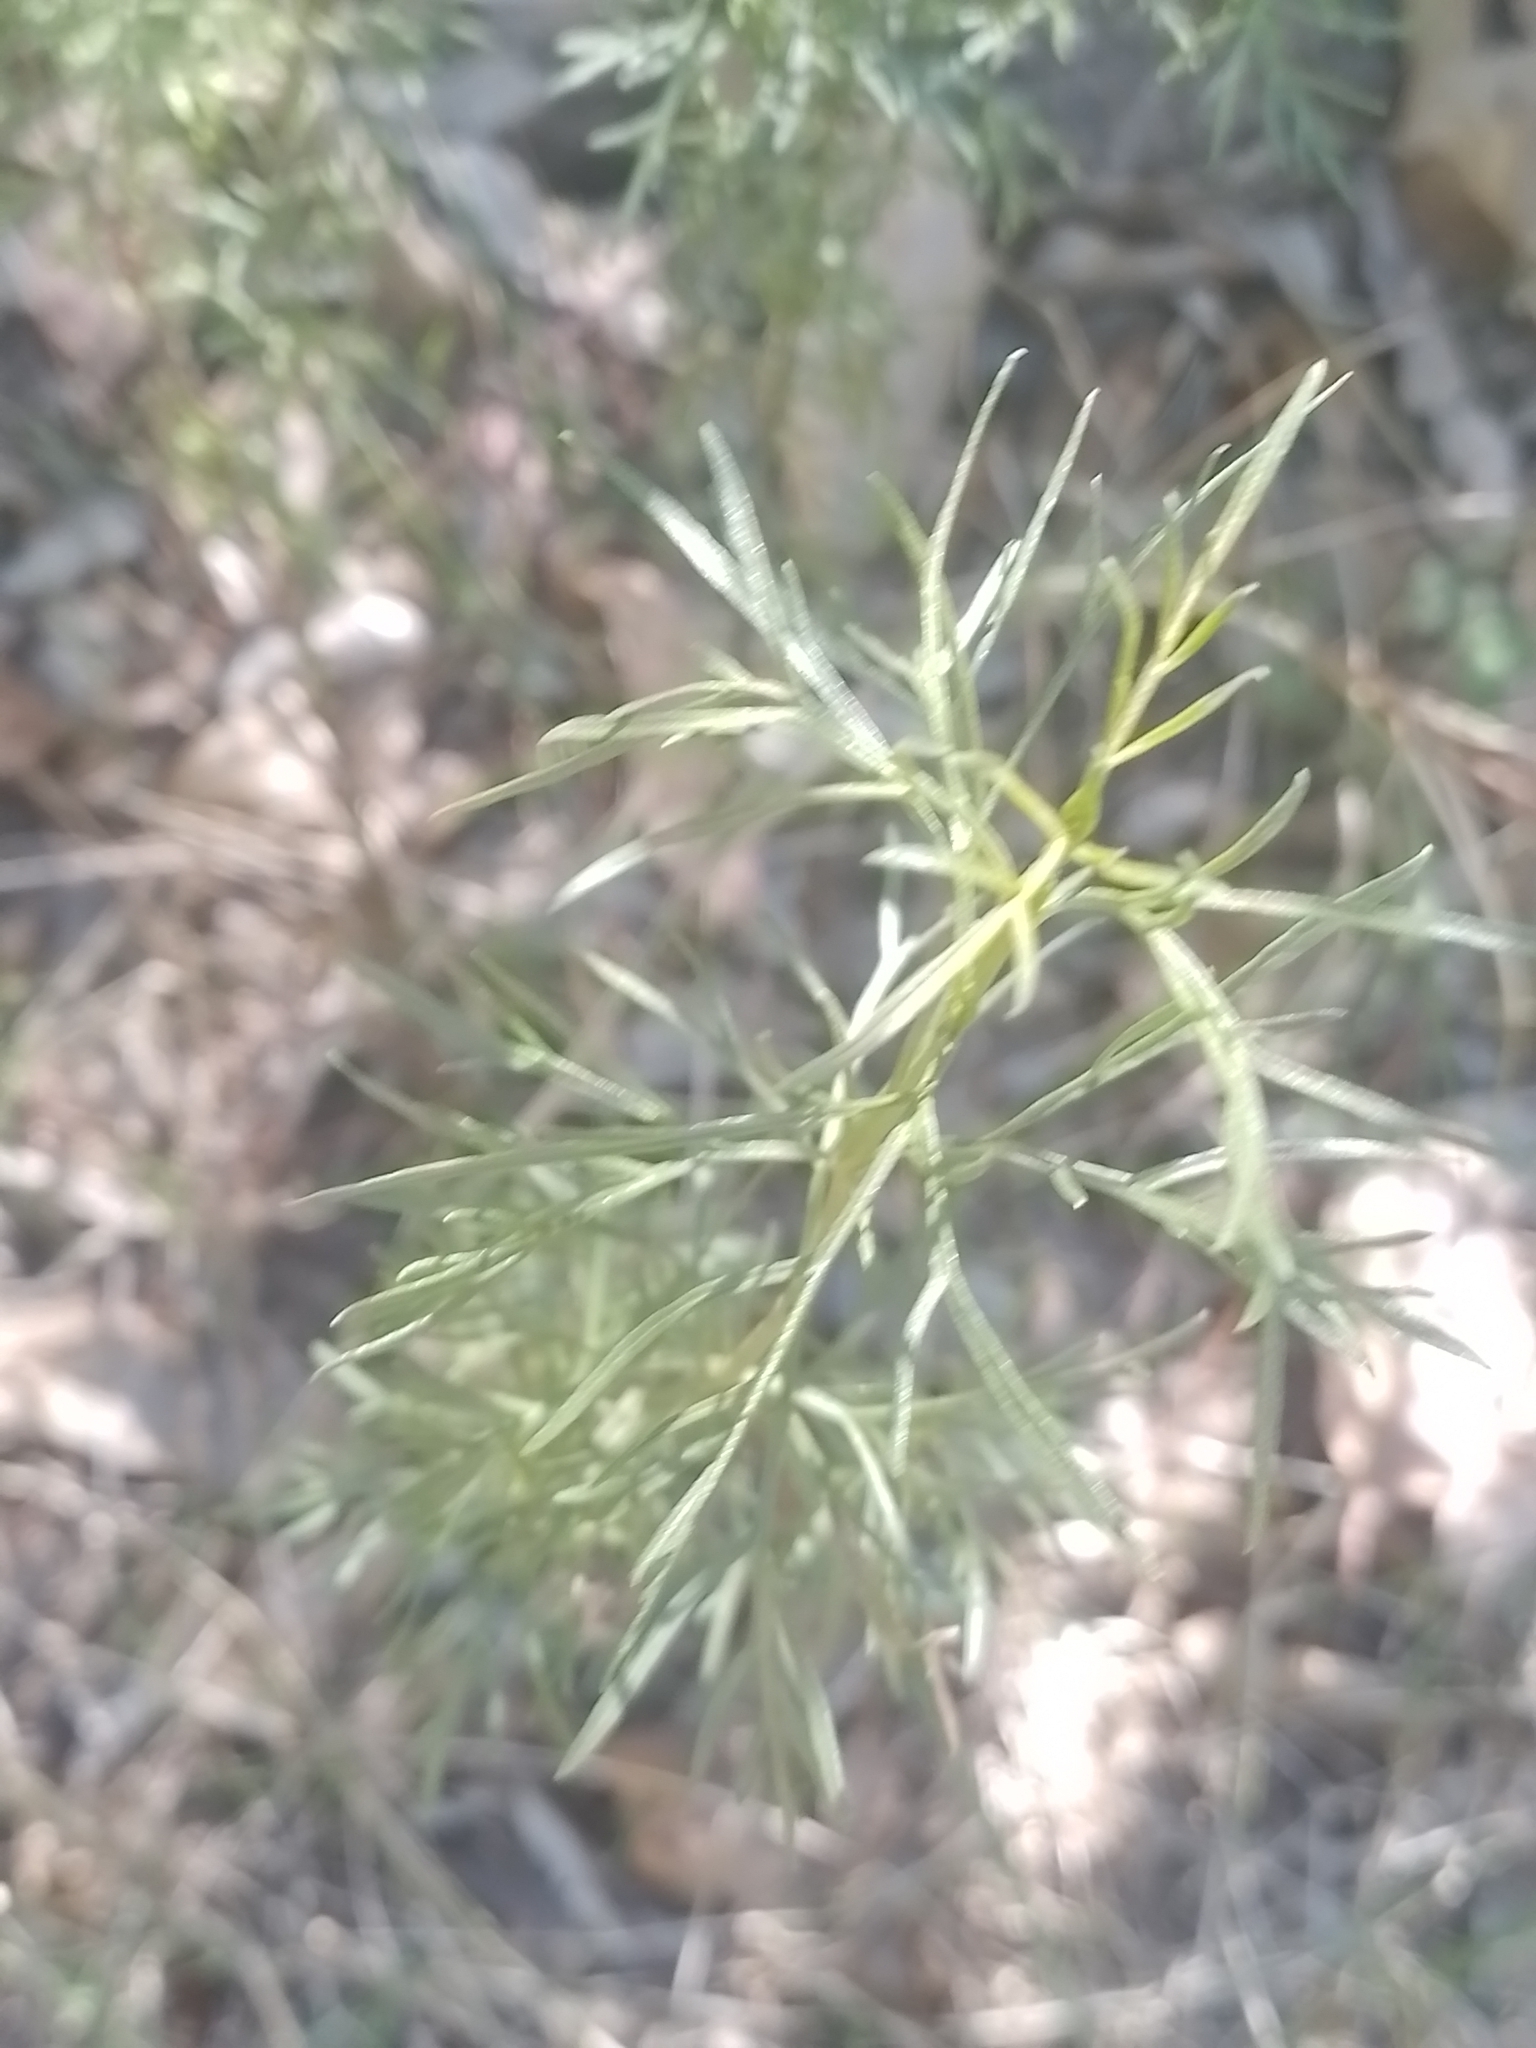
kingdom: Plantae
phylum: Tracheophyta
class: Magnoliopsida
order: Asterales
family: Asteraceae
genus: Acanthostyles
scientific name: Acanthostyles buniifolius
